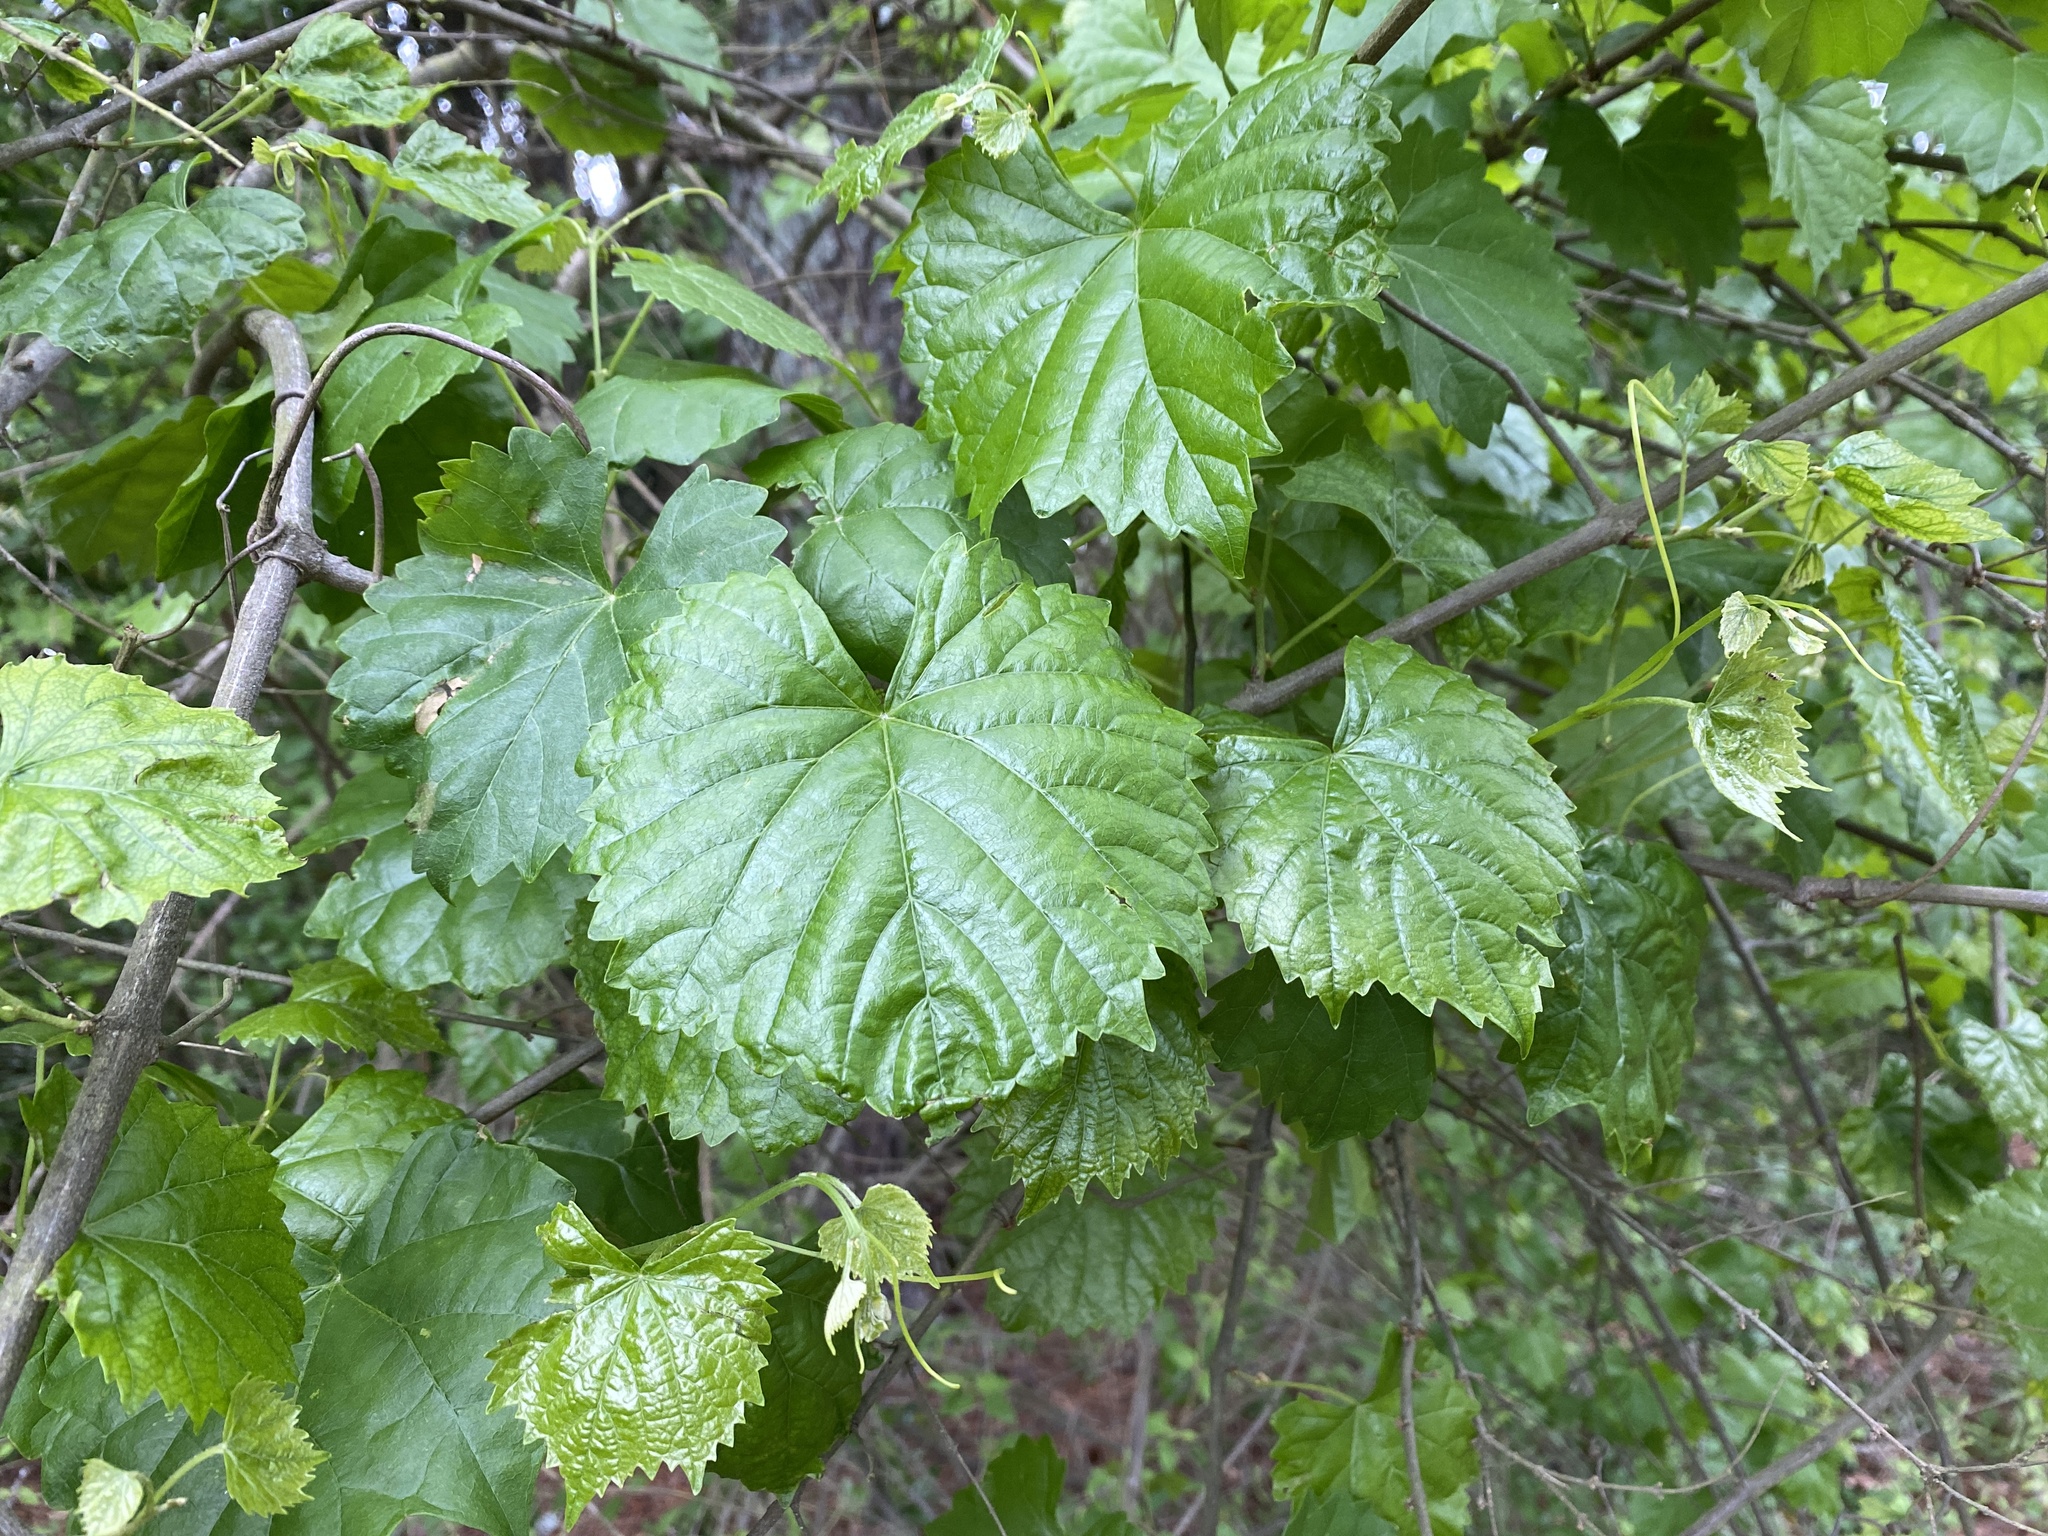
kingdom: Plantae
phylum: Tracheophyta
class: Magnoliopsida
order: Vitales
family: Vitaceae
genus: Vitis
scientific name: Vitis rotundifolia
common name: Muscadine grape
